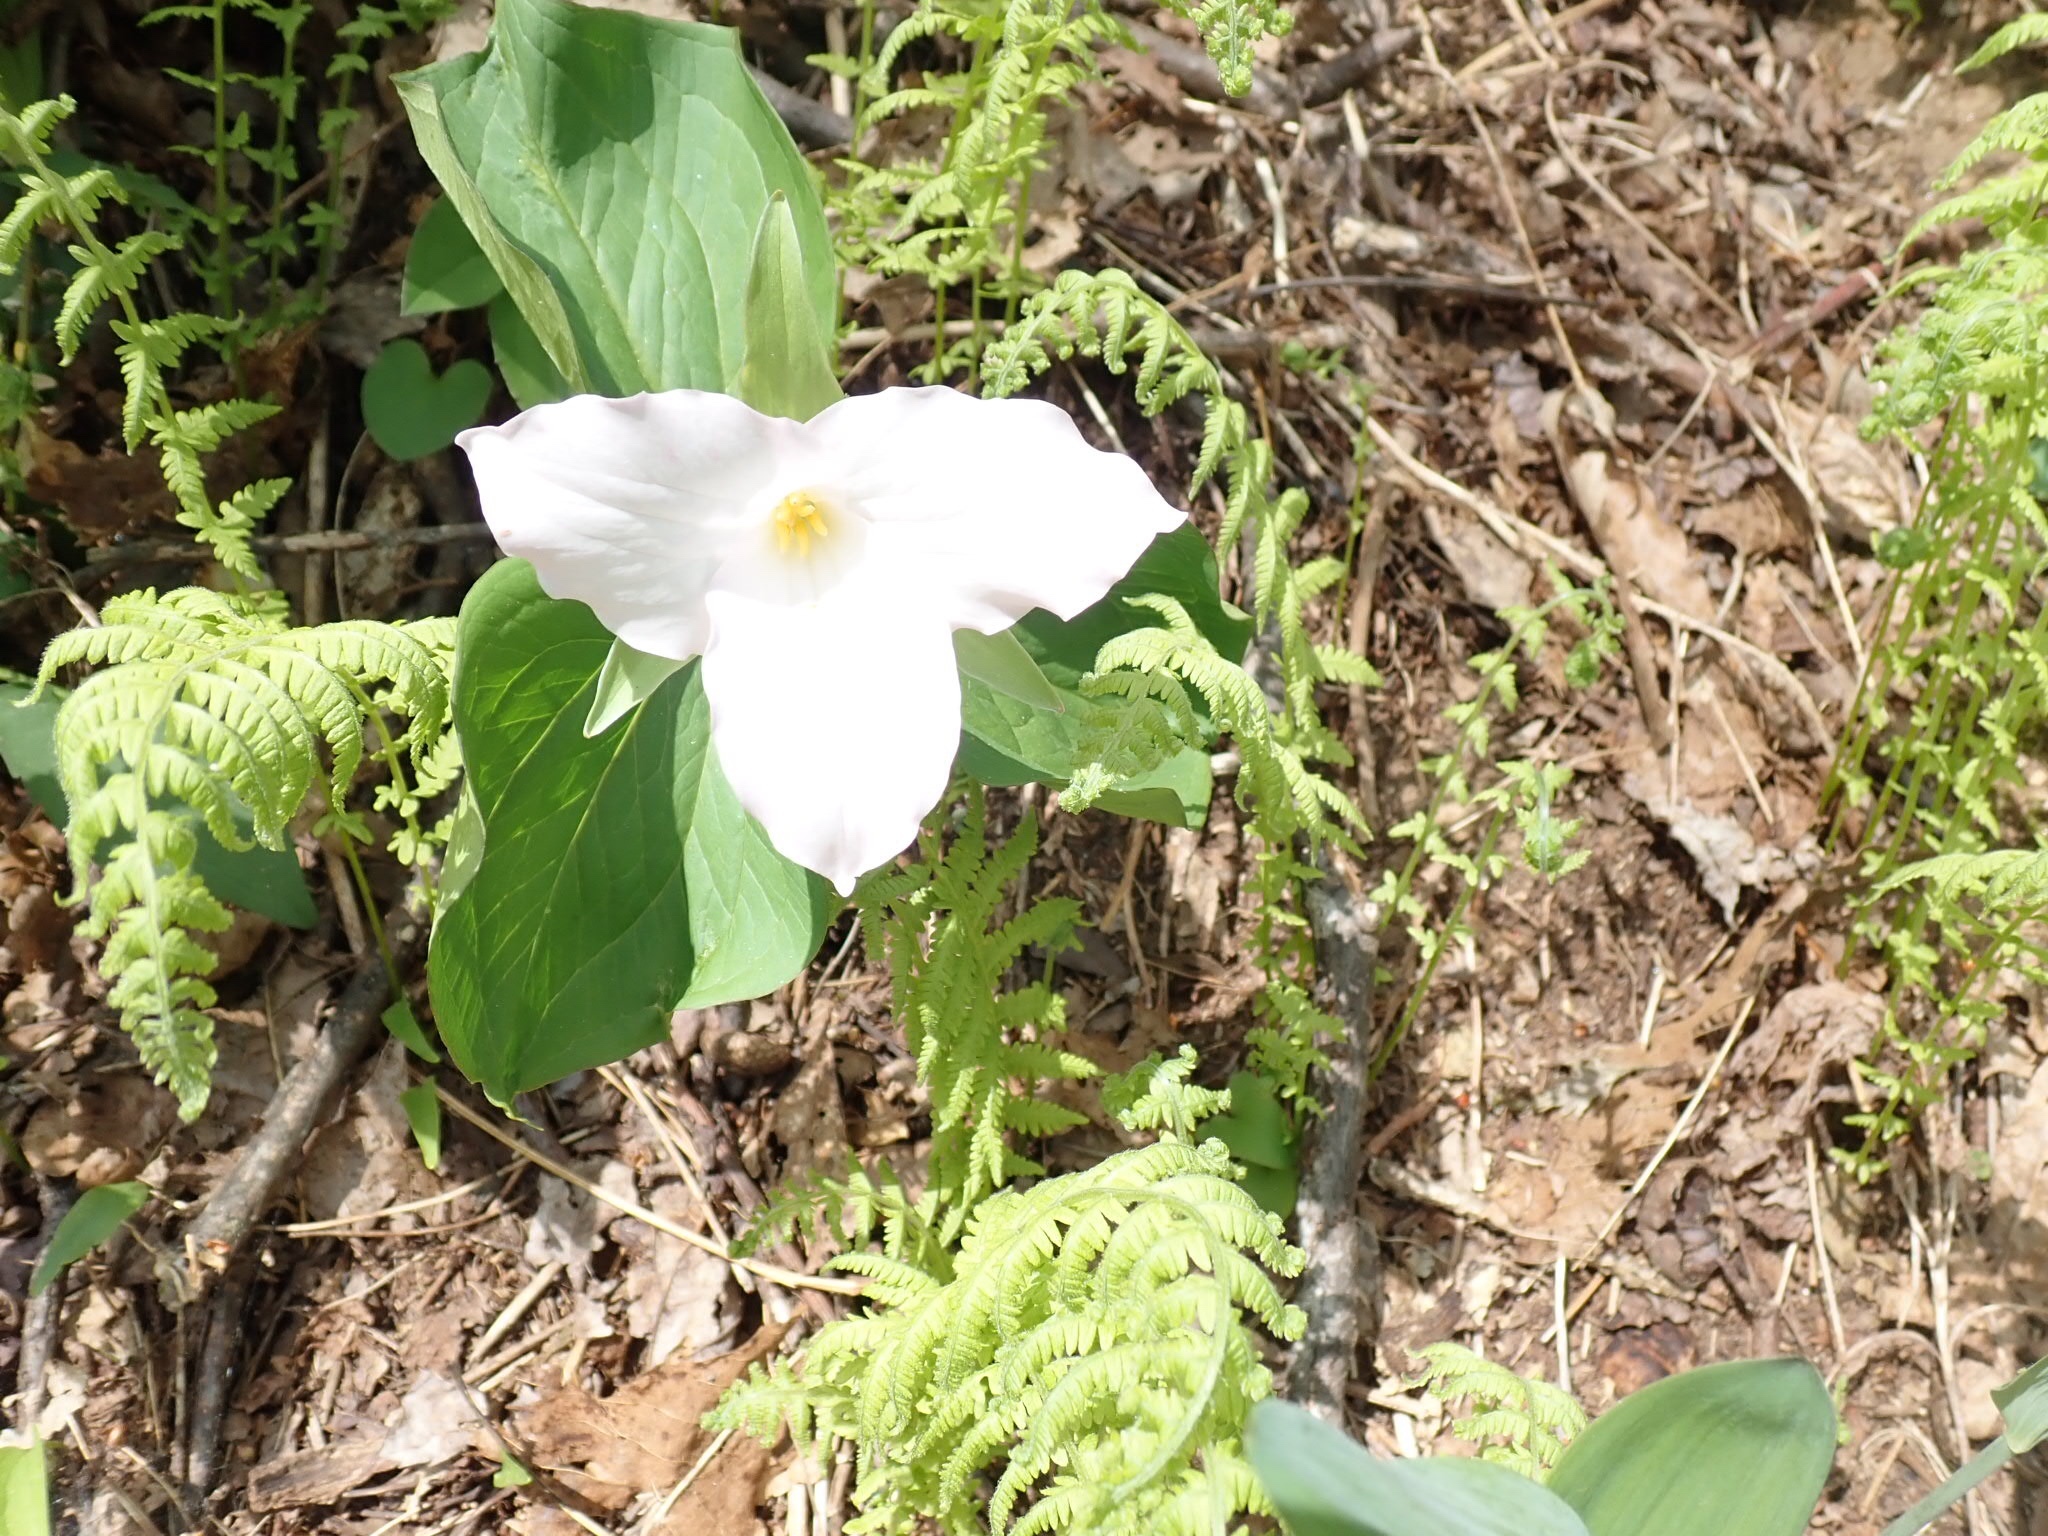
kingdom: Plantae
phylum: Tracheophyta
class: Liliopsida
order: Liliales
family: Melanthiaceae
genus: Trillium
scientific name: Trillium grandiflorum
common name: Great white trillium
